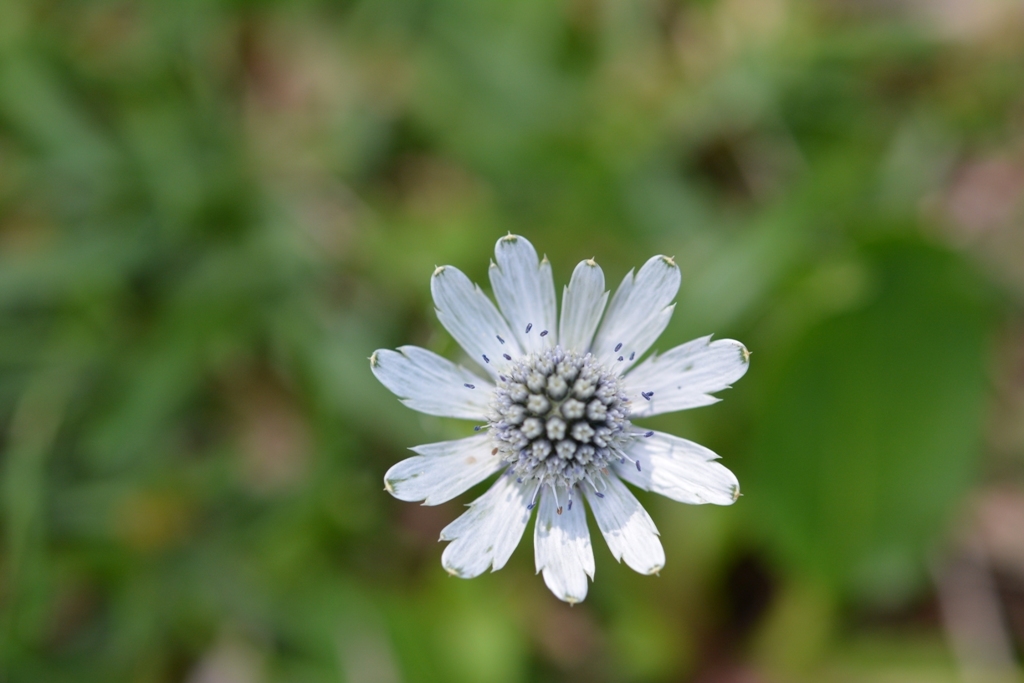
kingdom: Plantae
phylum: Tracheophyta
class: Magnoliopsida
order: Apiales
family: Apiaceae
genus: Eryngium
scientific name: Eryngium scaposum
